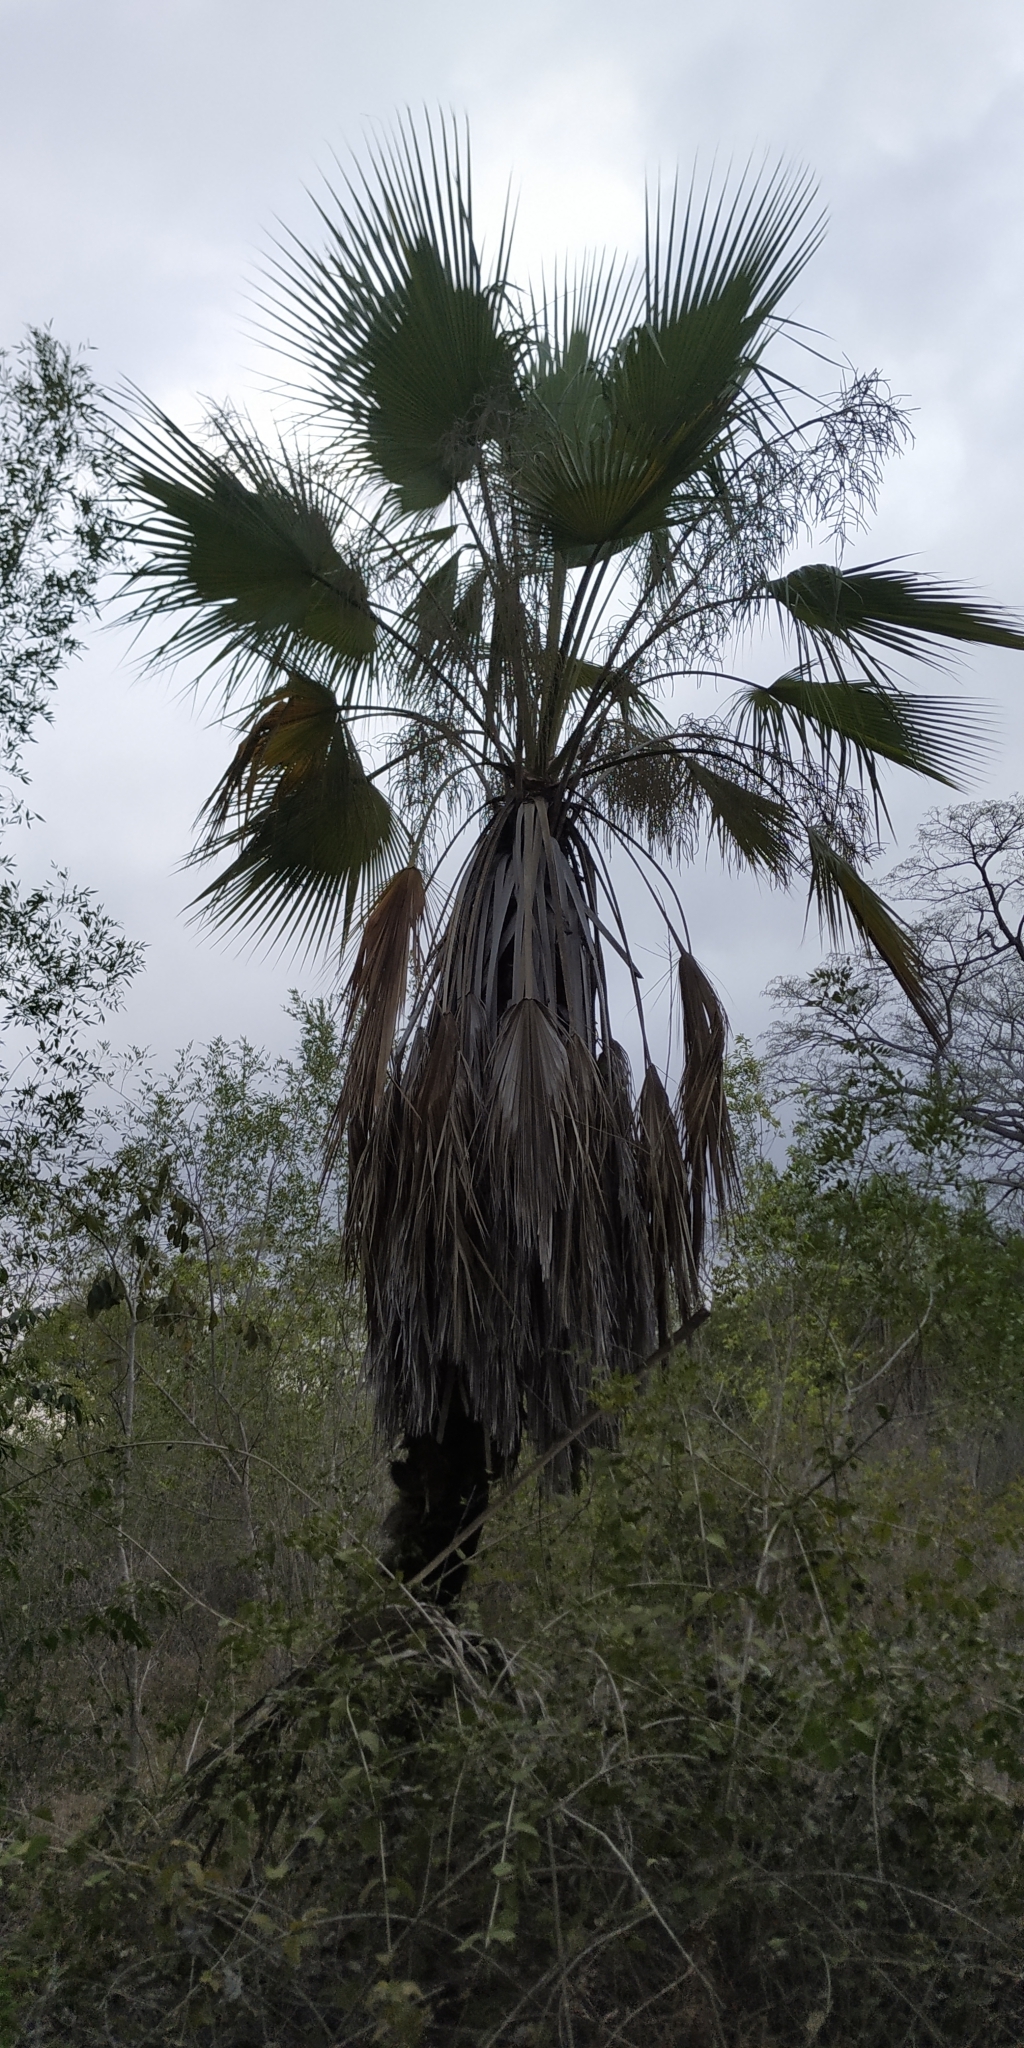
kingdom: Plantae
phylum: Tracheophyta
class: Liliopsida
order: Arecales
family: Arecaceae
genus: Brahea
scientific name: Brahea dulcis
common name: Apak palm
